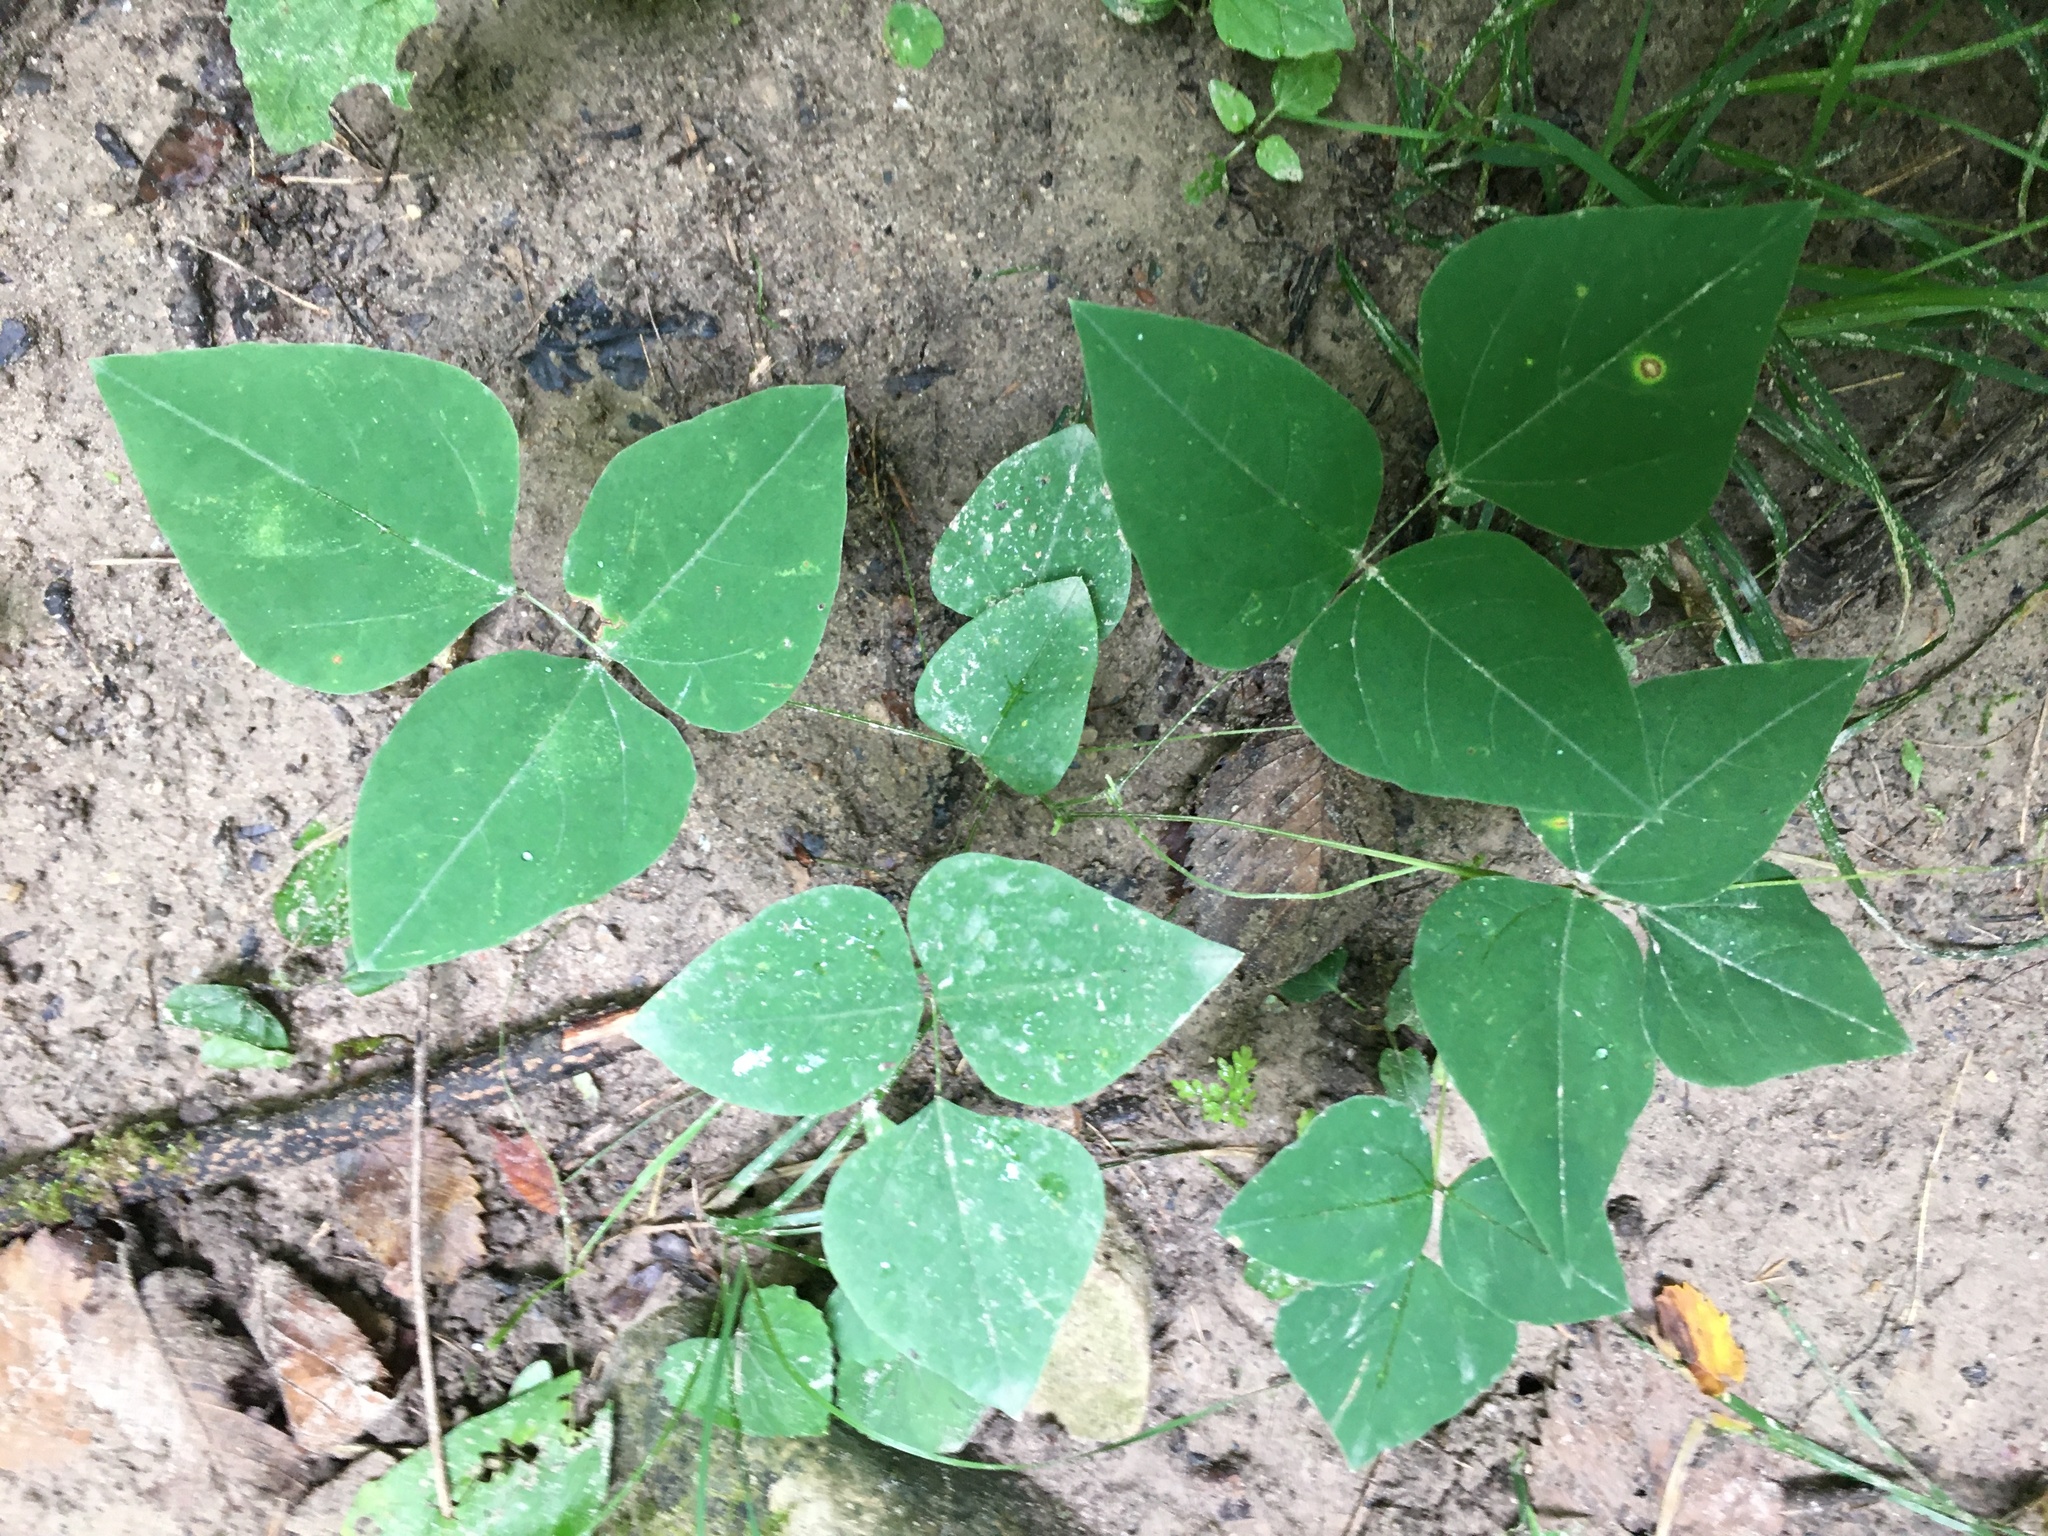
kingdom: Plantae
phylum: Tracheophyta
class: Magnoliopsida
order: Fabales
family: Fabaceae
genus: Amphicarpaea
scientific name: Amphicarpaea bracteata
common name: American hog peanut
